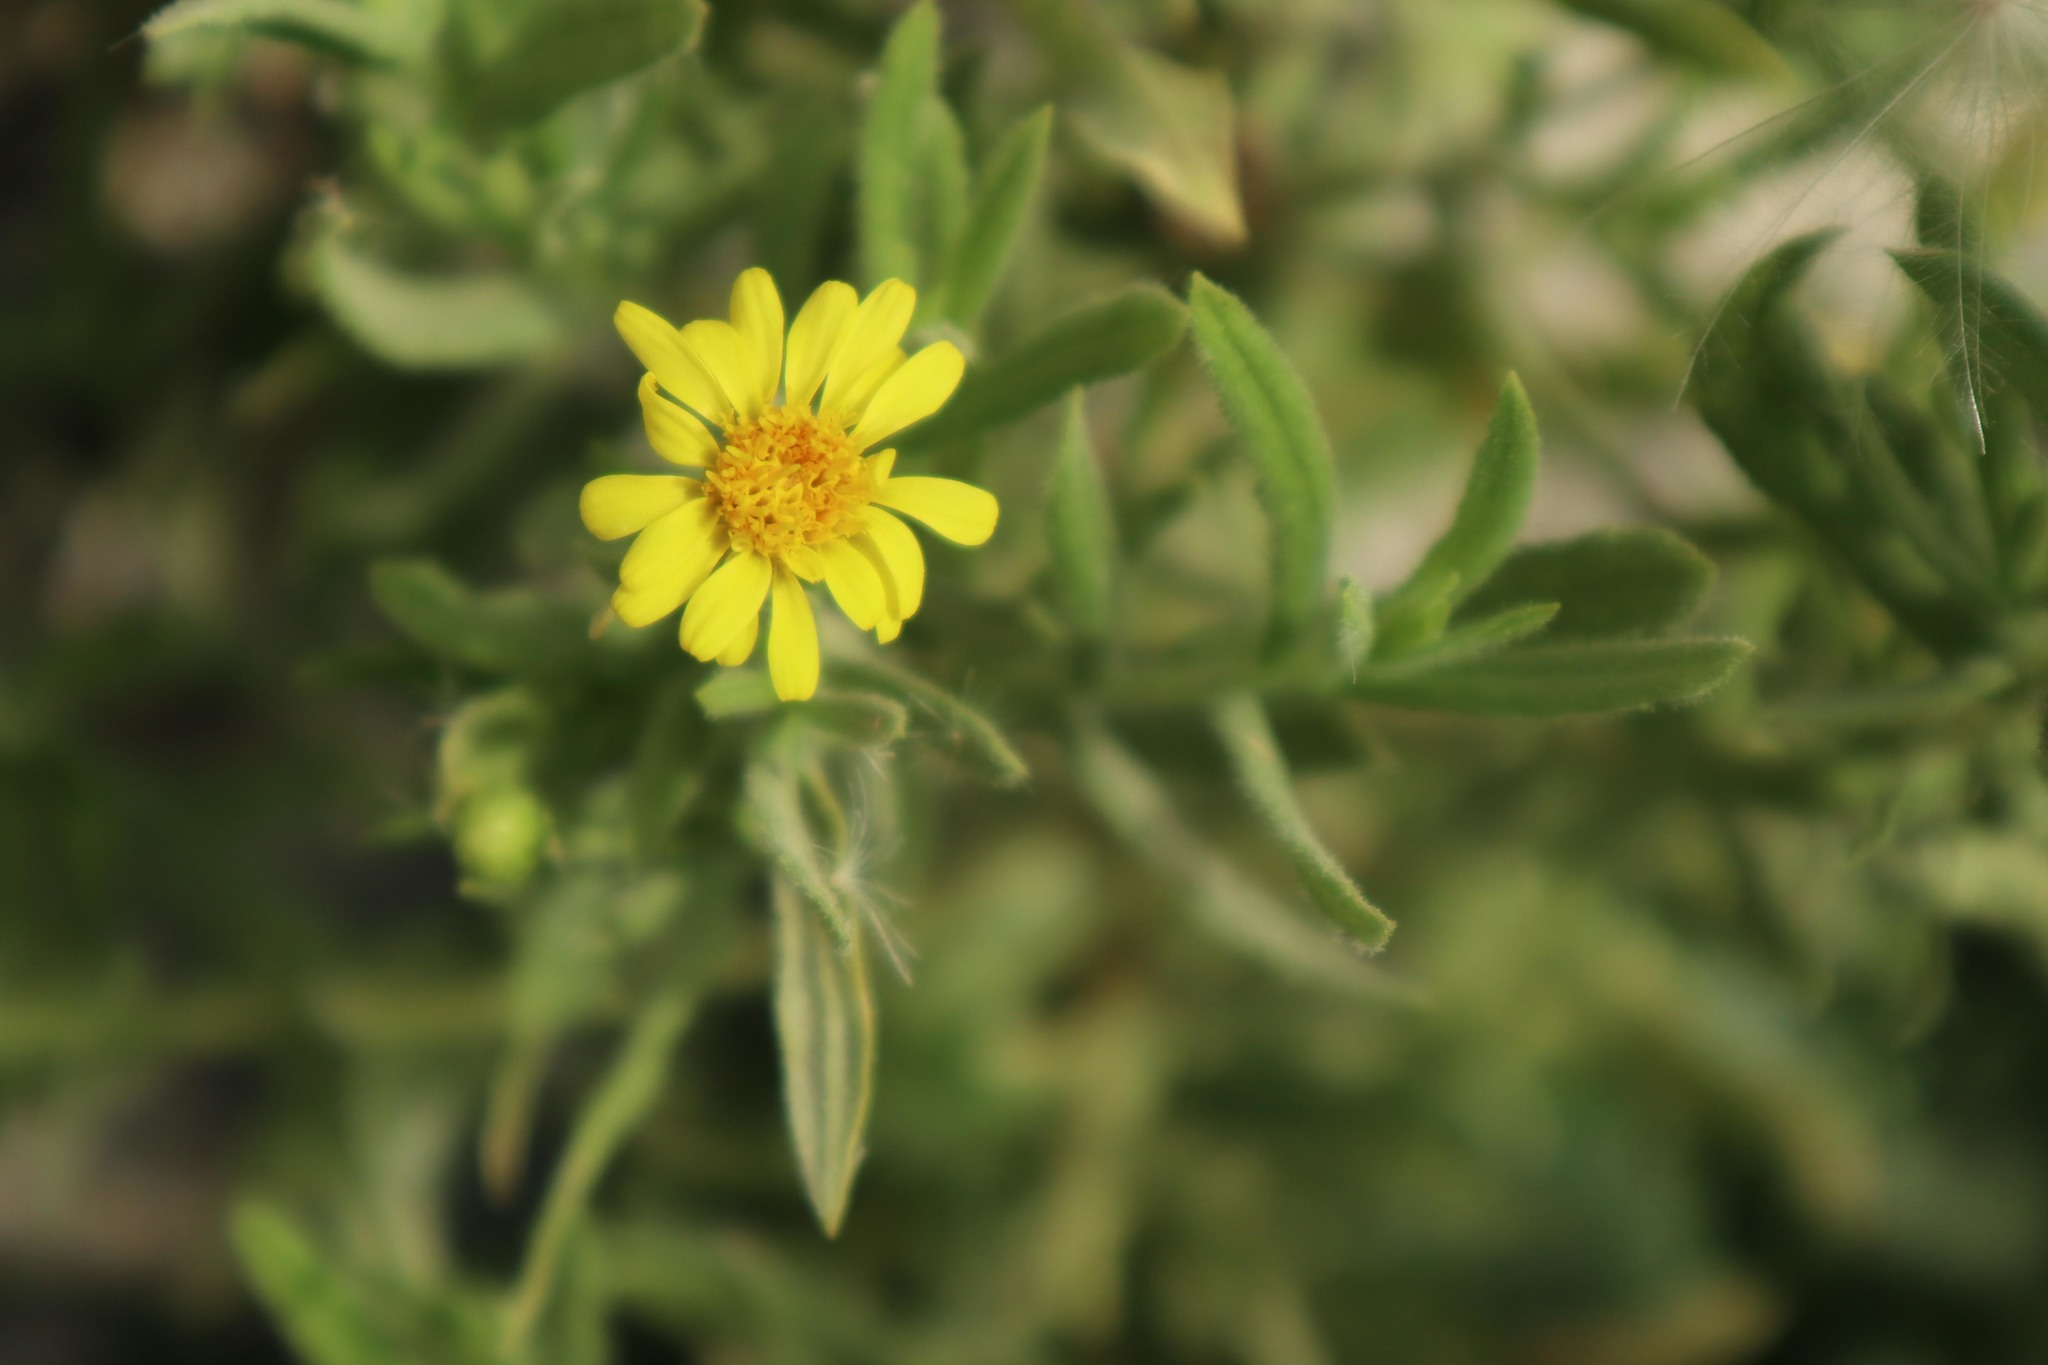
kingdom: Plantae
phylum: Tracheophyta
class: Magnoliopsida
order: Asterales
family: Asteraceae
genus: Dittrichia
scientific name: Dittrichia viscosa
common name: Woody fleabane
